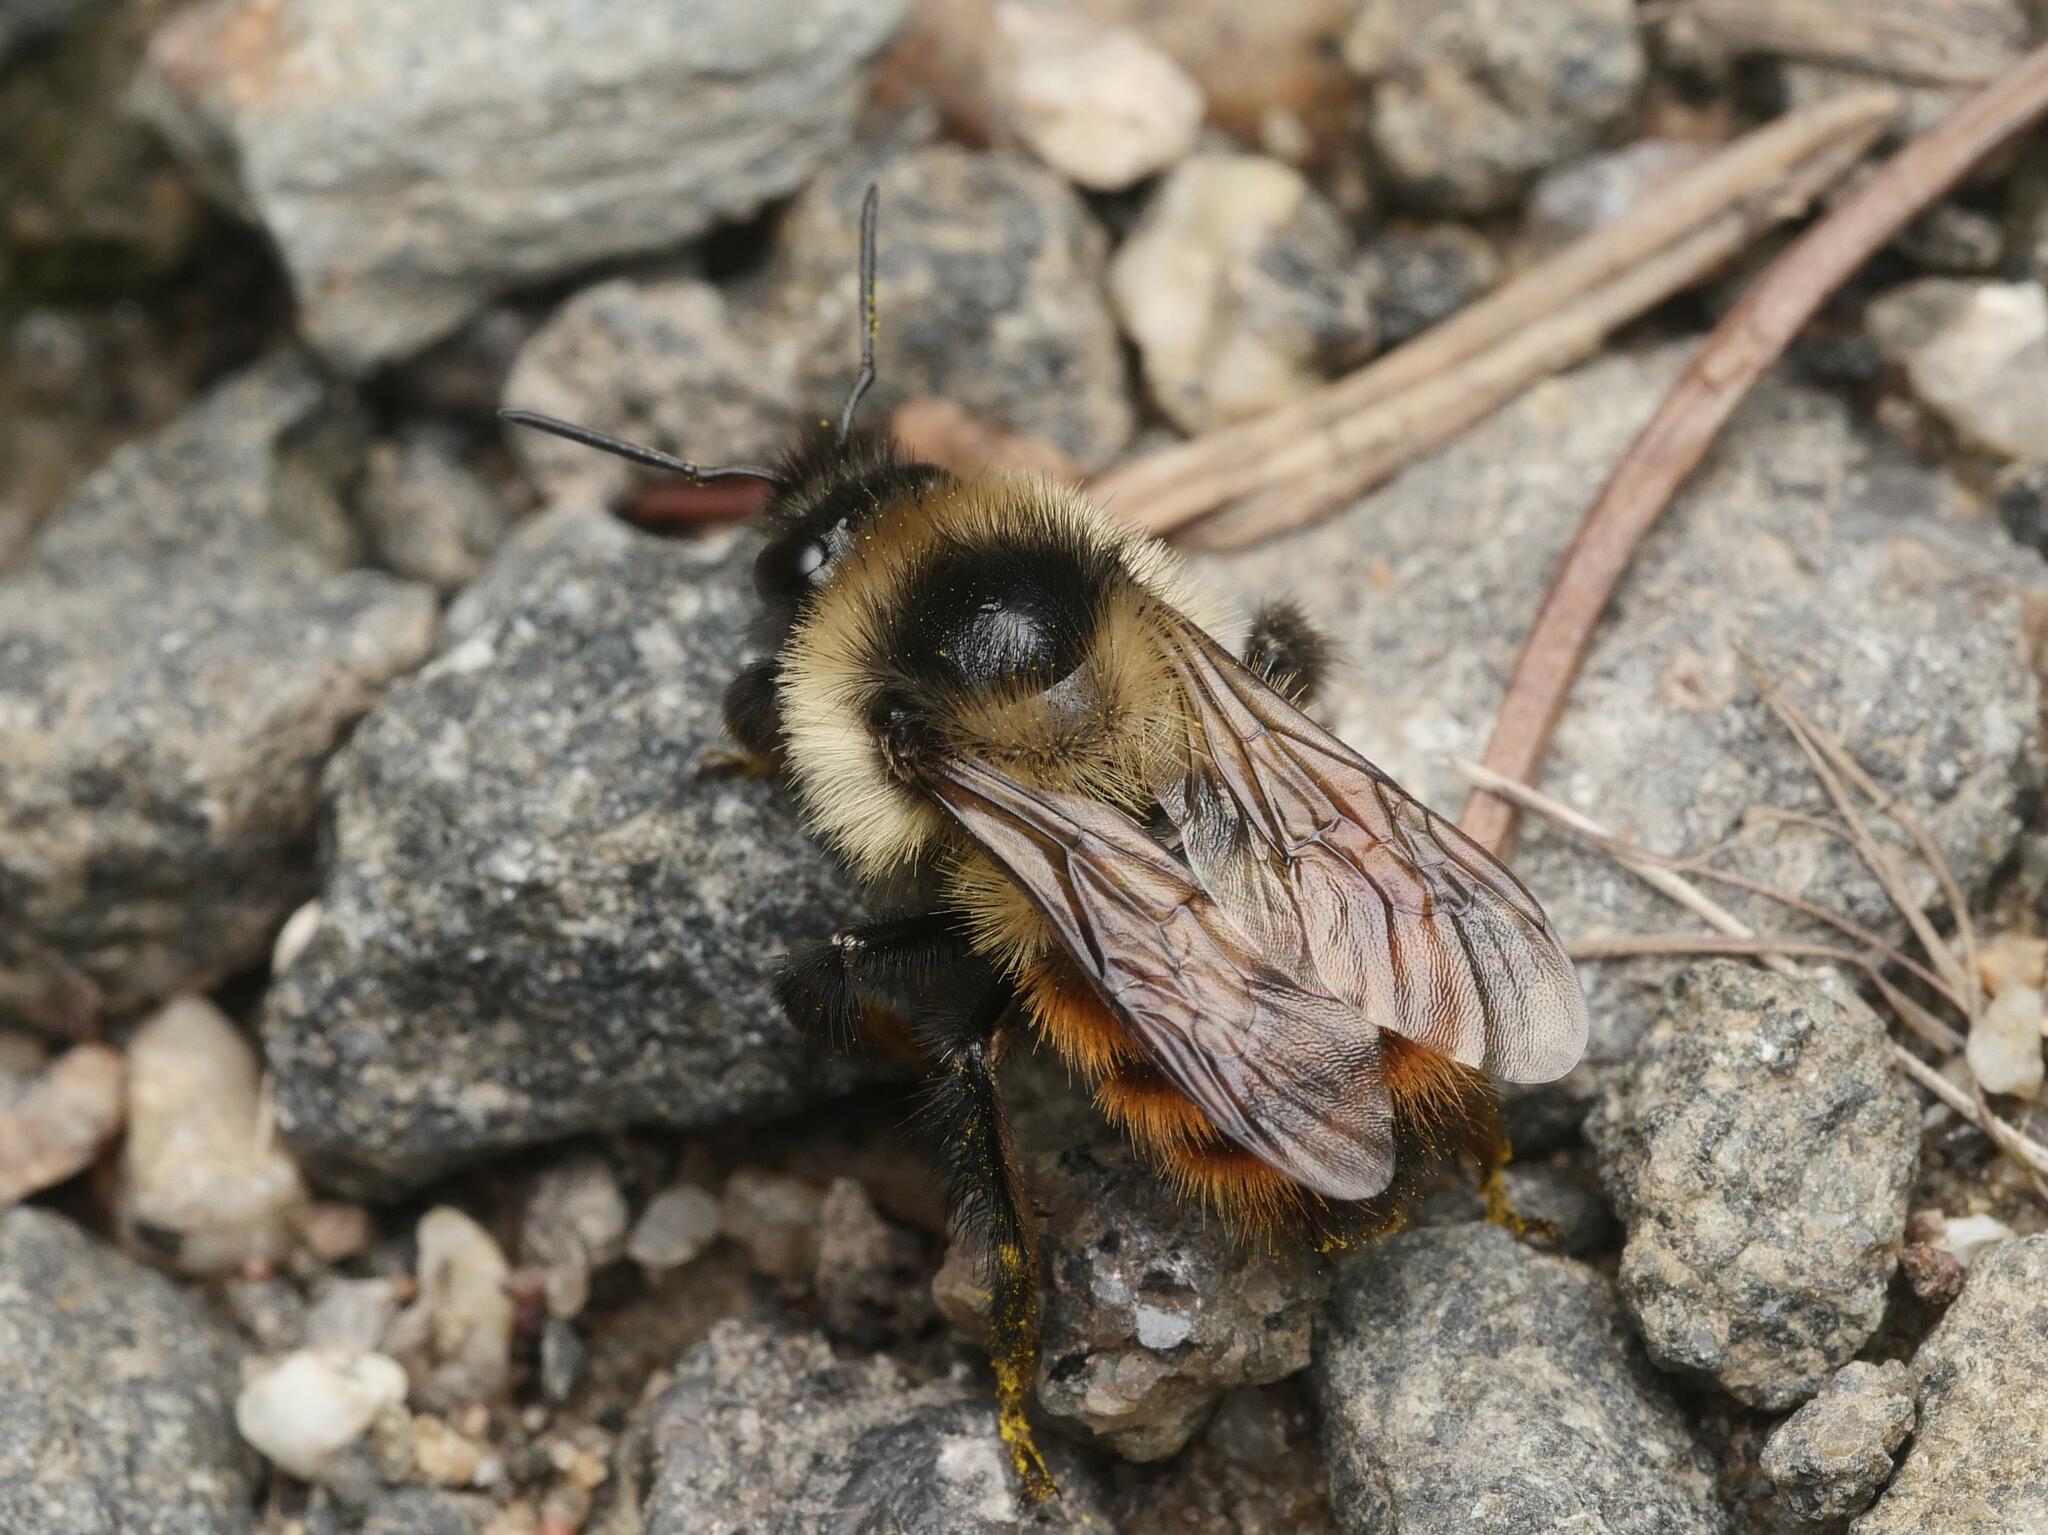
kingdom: Animalia
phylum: Arthropoda
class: Insecta
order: Hymenoptera
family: Apidae
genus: Bombus
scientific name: Bombus rufocinctus
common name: Red-belted bumble bee
